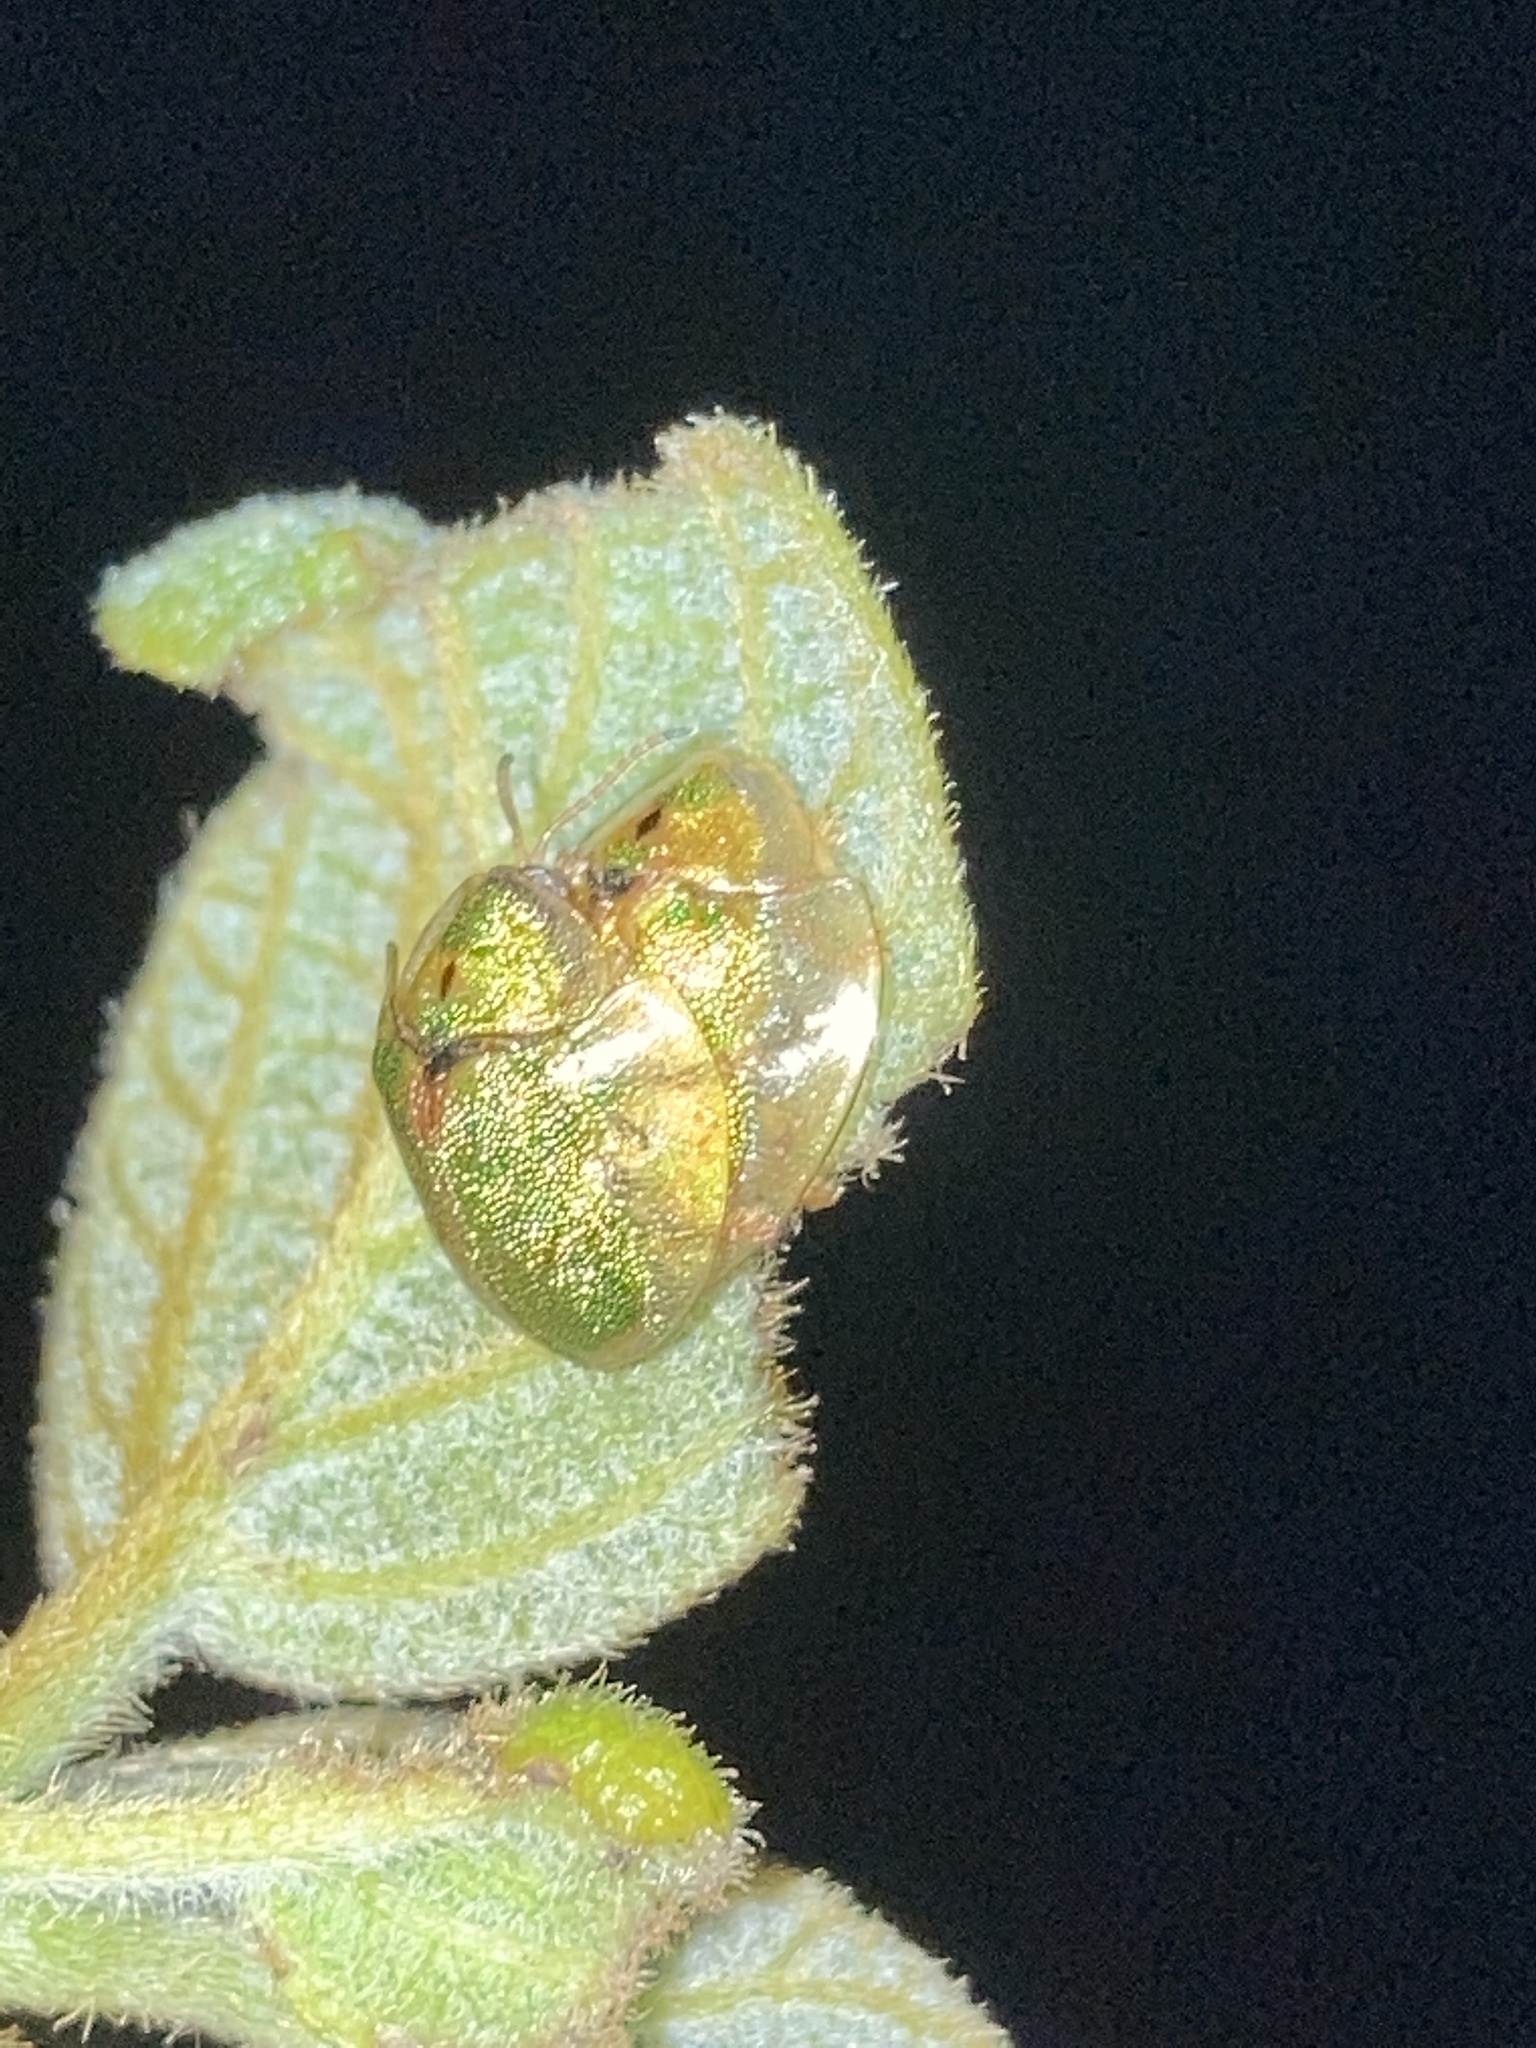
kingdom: Animalia
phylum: Arthropoda
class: Insecta
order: Coleoptera
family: Chrysomelidae
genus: Eurypepla
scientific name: Eurypepla calochroma
